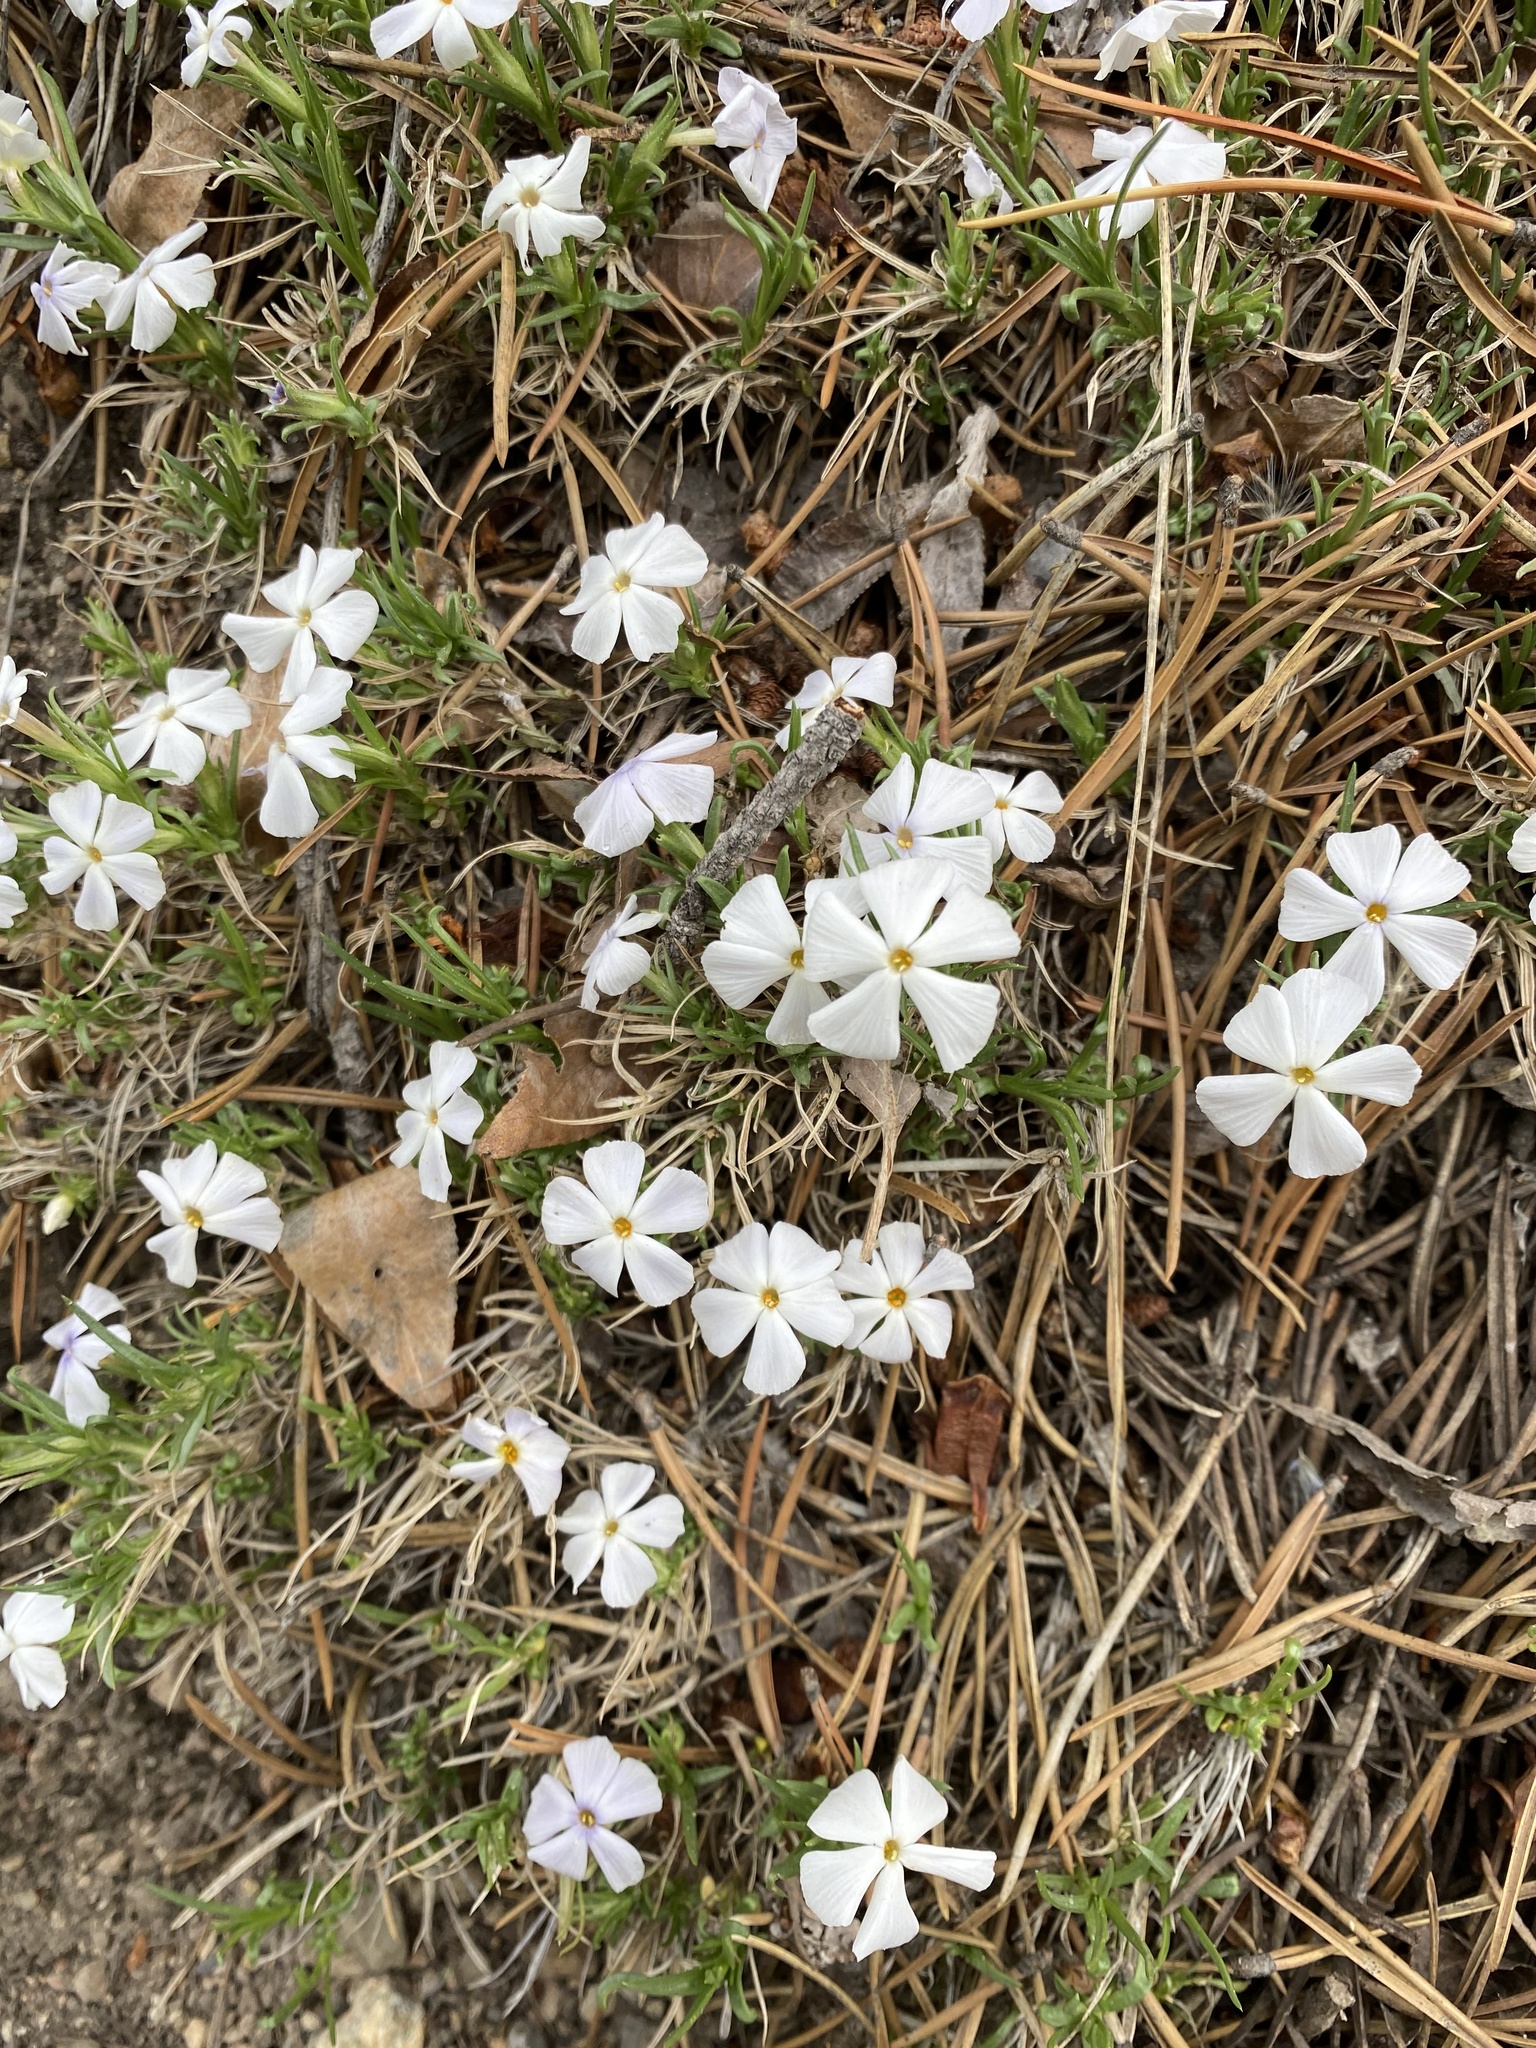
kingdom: Plantae
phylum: Tracheophyta
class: Magnoliopsida
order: Ericales
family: Polemoniaceae
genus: Phlox
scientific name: Phlox multiflora
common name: Rocky mountain phlox
